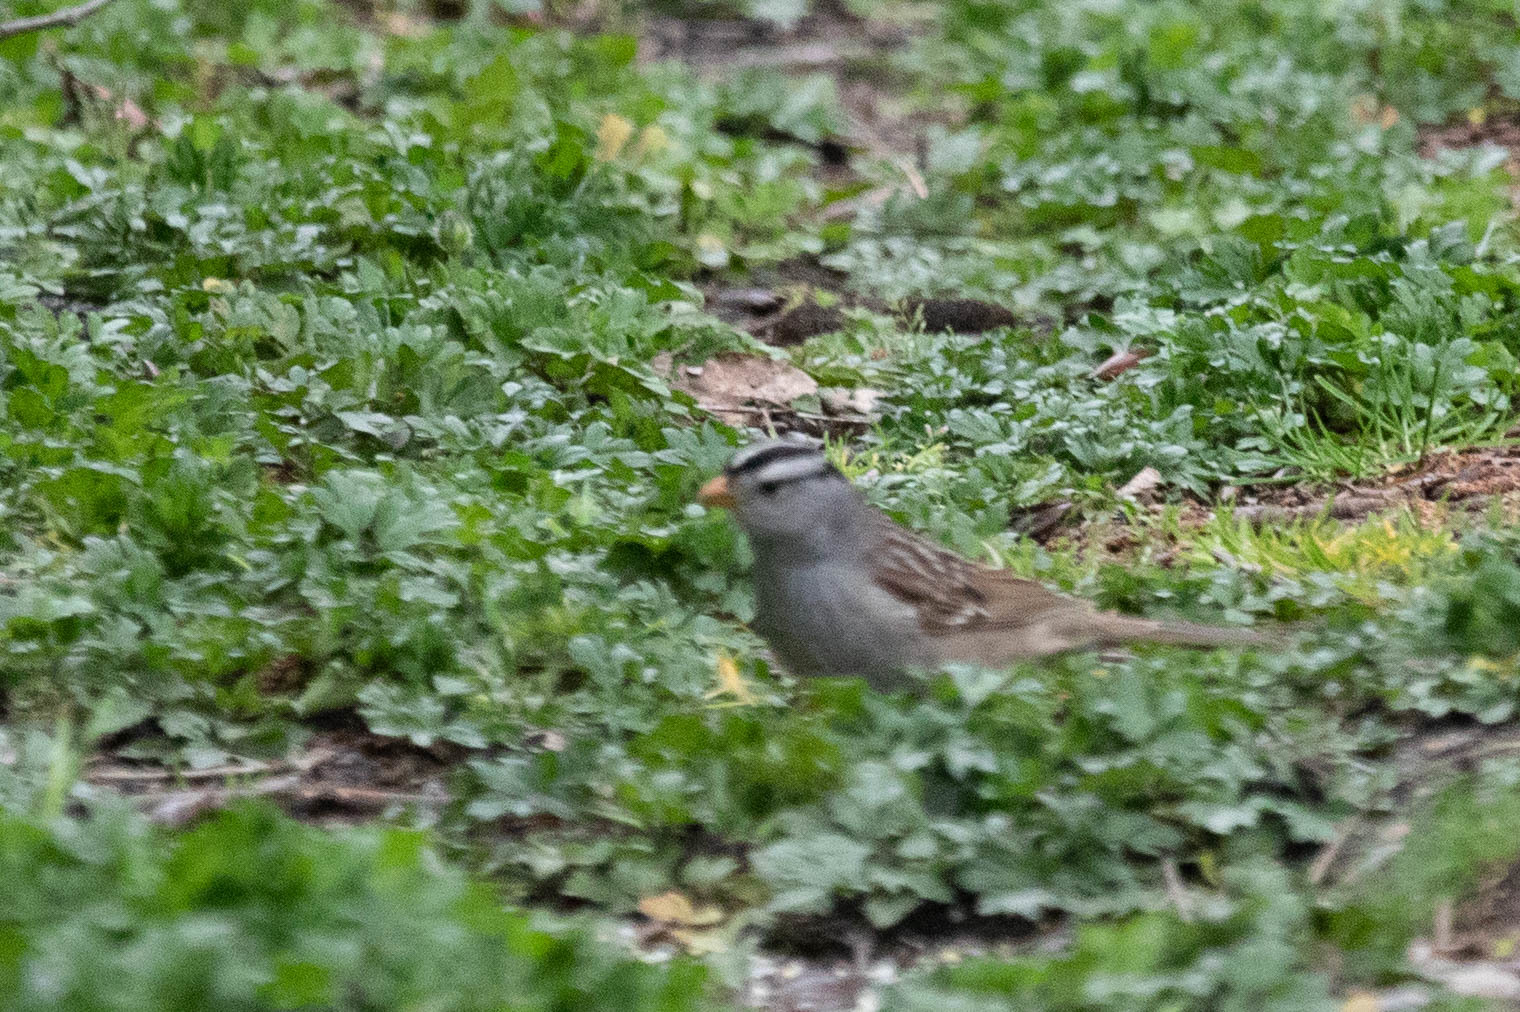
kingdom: Animalia
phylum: Chordata
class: Aves
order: Passeriformes
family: Passerellidae
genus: Zonotrichia
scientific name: Zonotrichia leucophrys
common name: White-crowned sparrow
